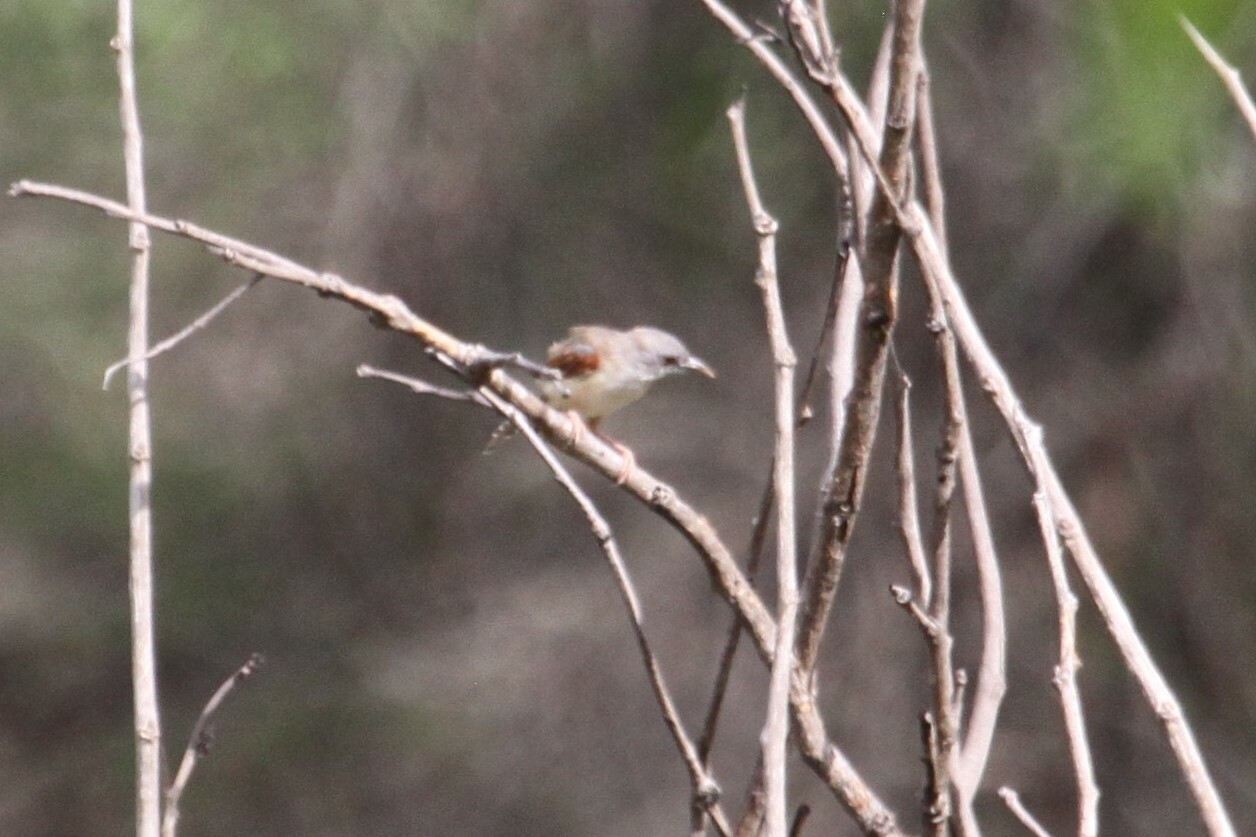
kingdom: Animalia
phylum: Chordata
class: Aves
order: Passeriformes
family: Cisticolidae
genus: Heliolais
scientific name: Heliolais erythropterus
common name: Red-winged warbler
